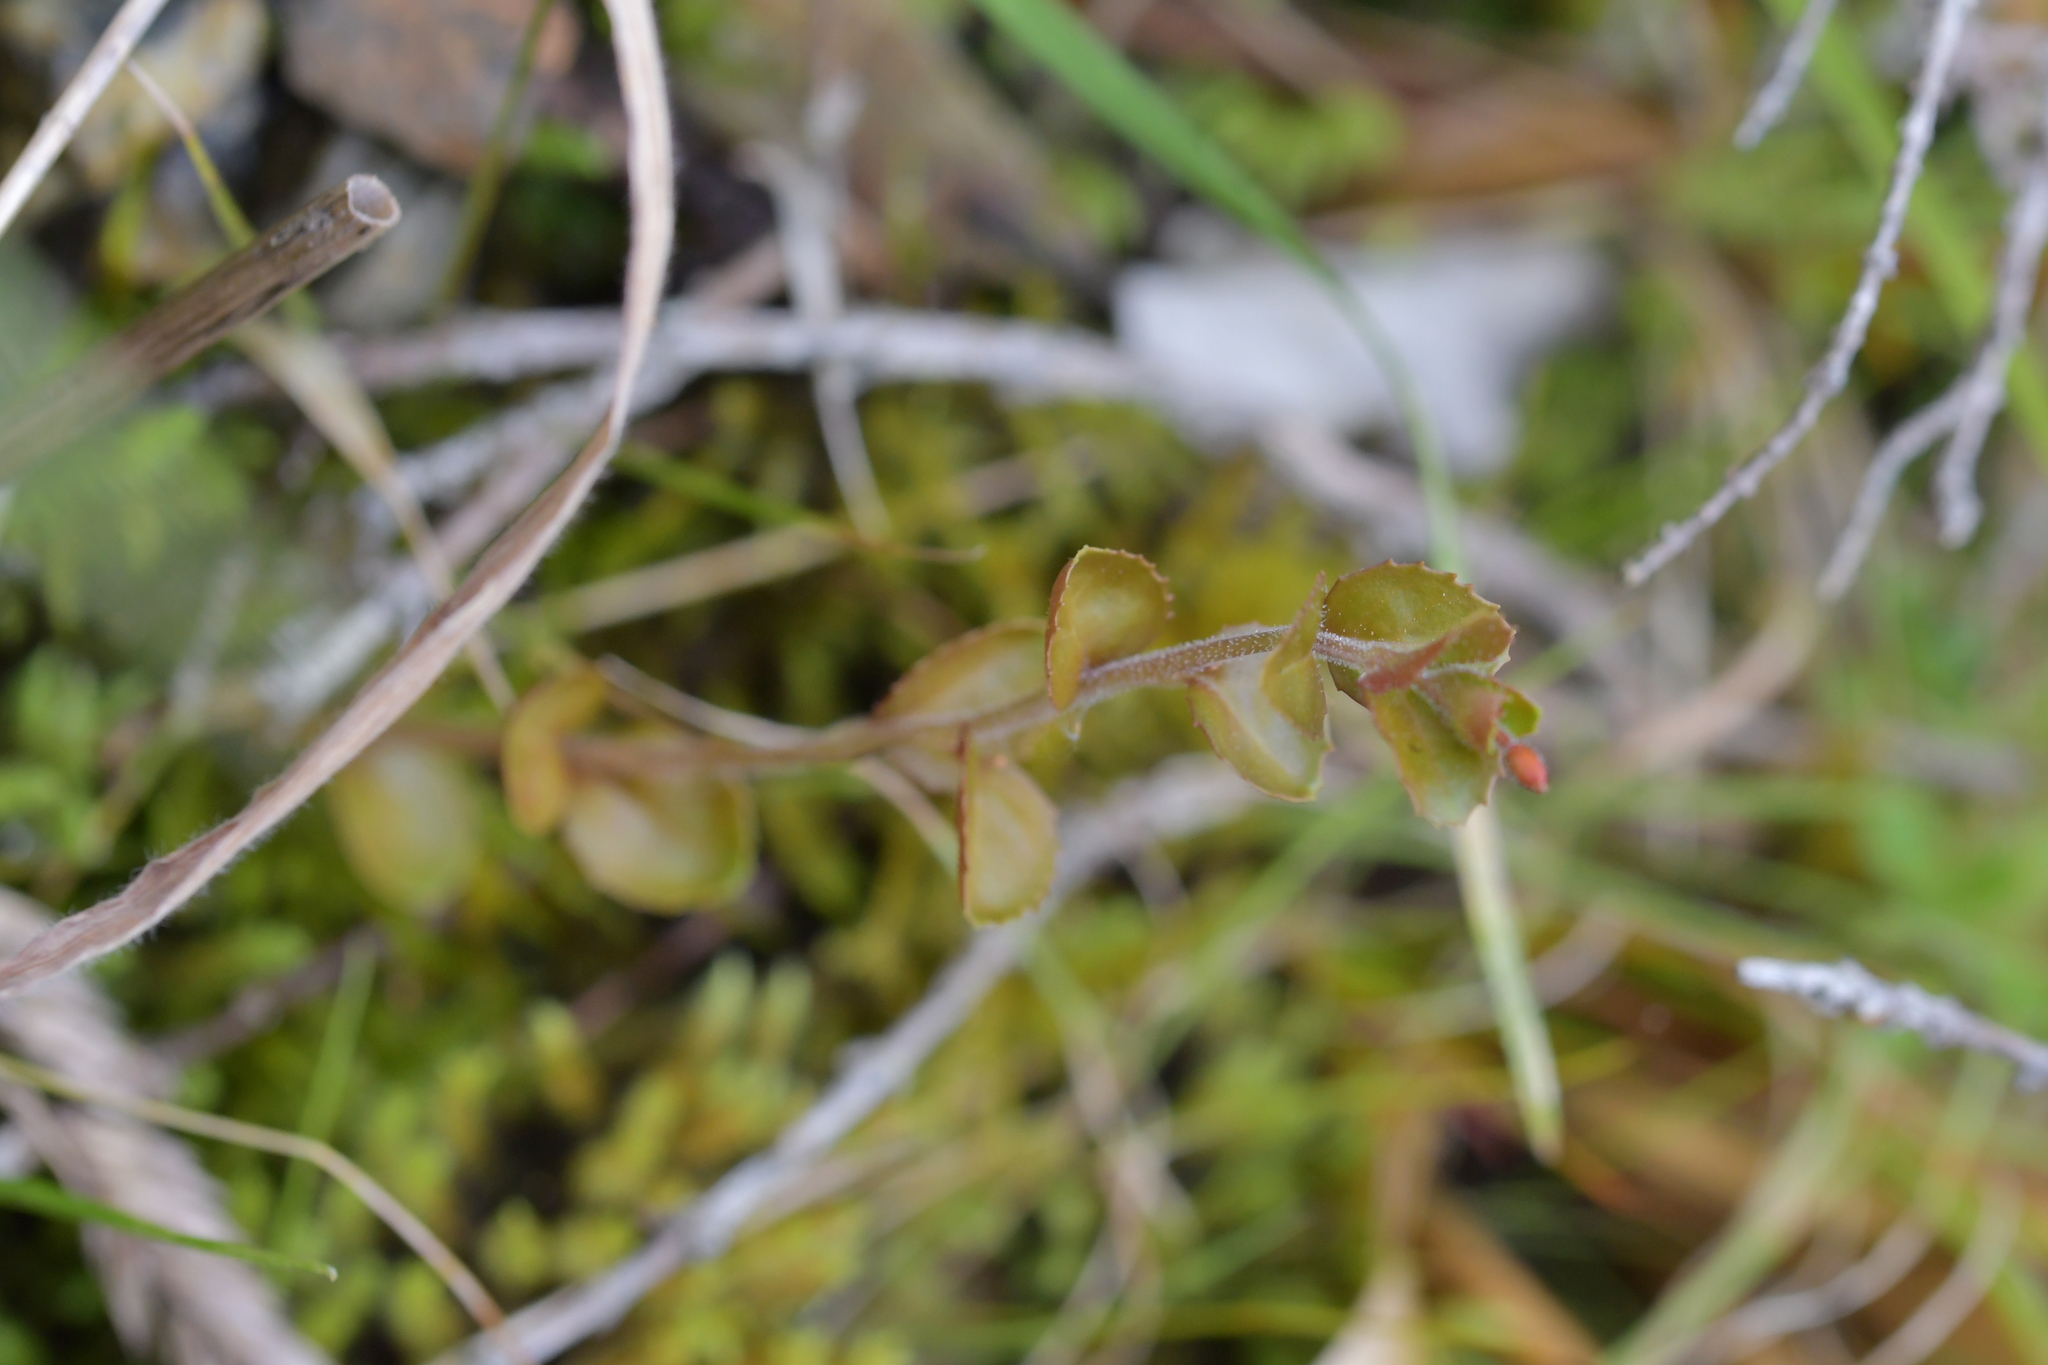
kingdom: Plantae
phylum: Tracheophyta
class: Magnoliopsida
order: Myrtales
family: Onagraceae
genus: Epilobium
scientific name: Epilobium rotundifolium
